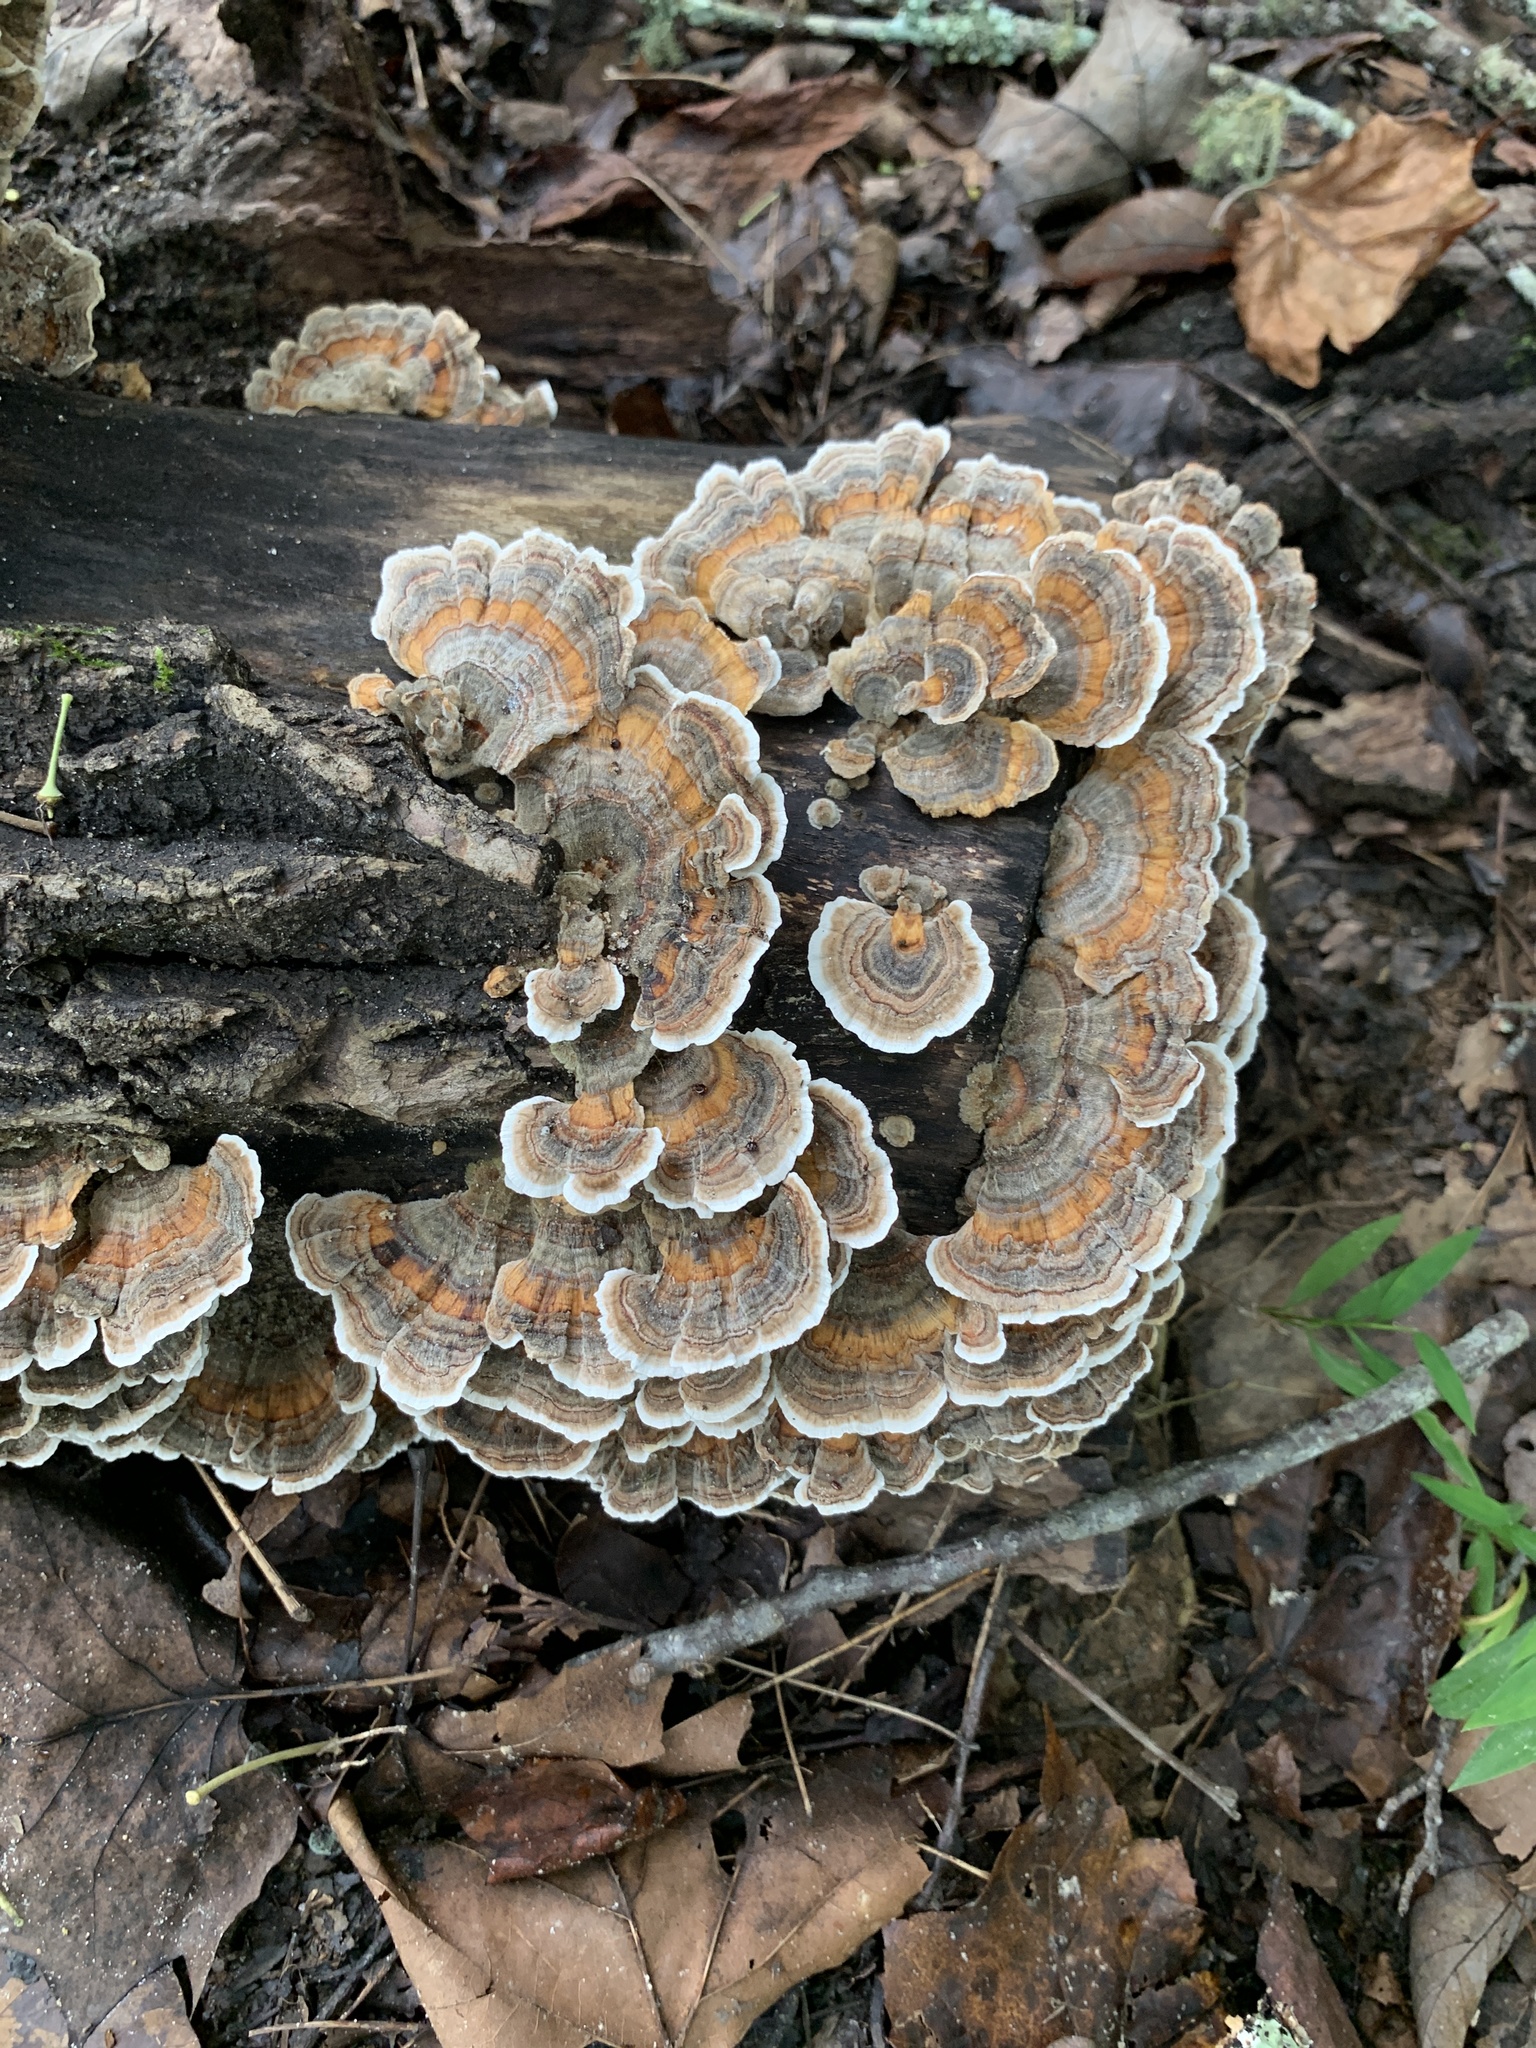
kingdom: Fungi
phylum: Basidiomycota
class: Agaricomycetes
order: Polyporales
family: Polyporaceae
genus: Trametes
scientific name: Trametes versicolor
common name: Turkeytail
